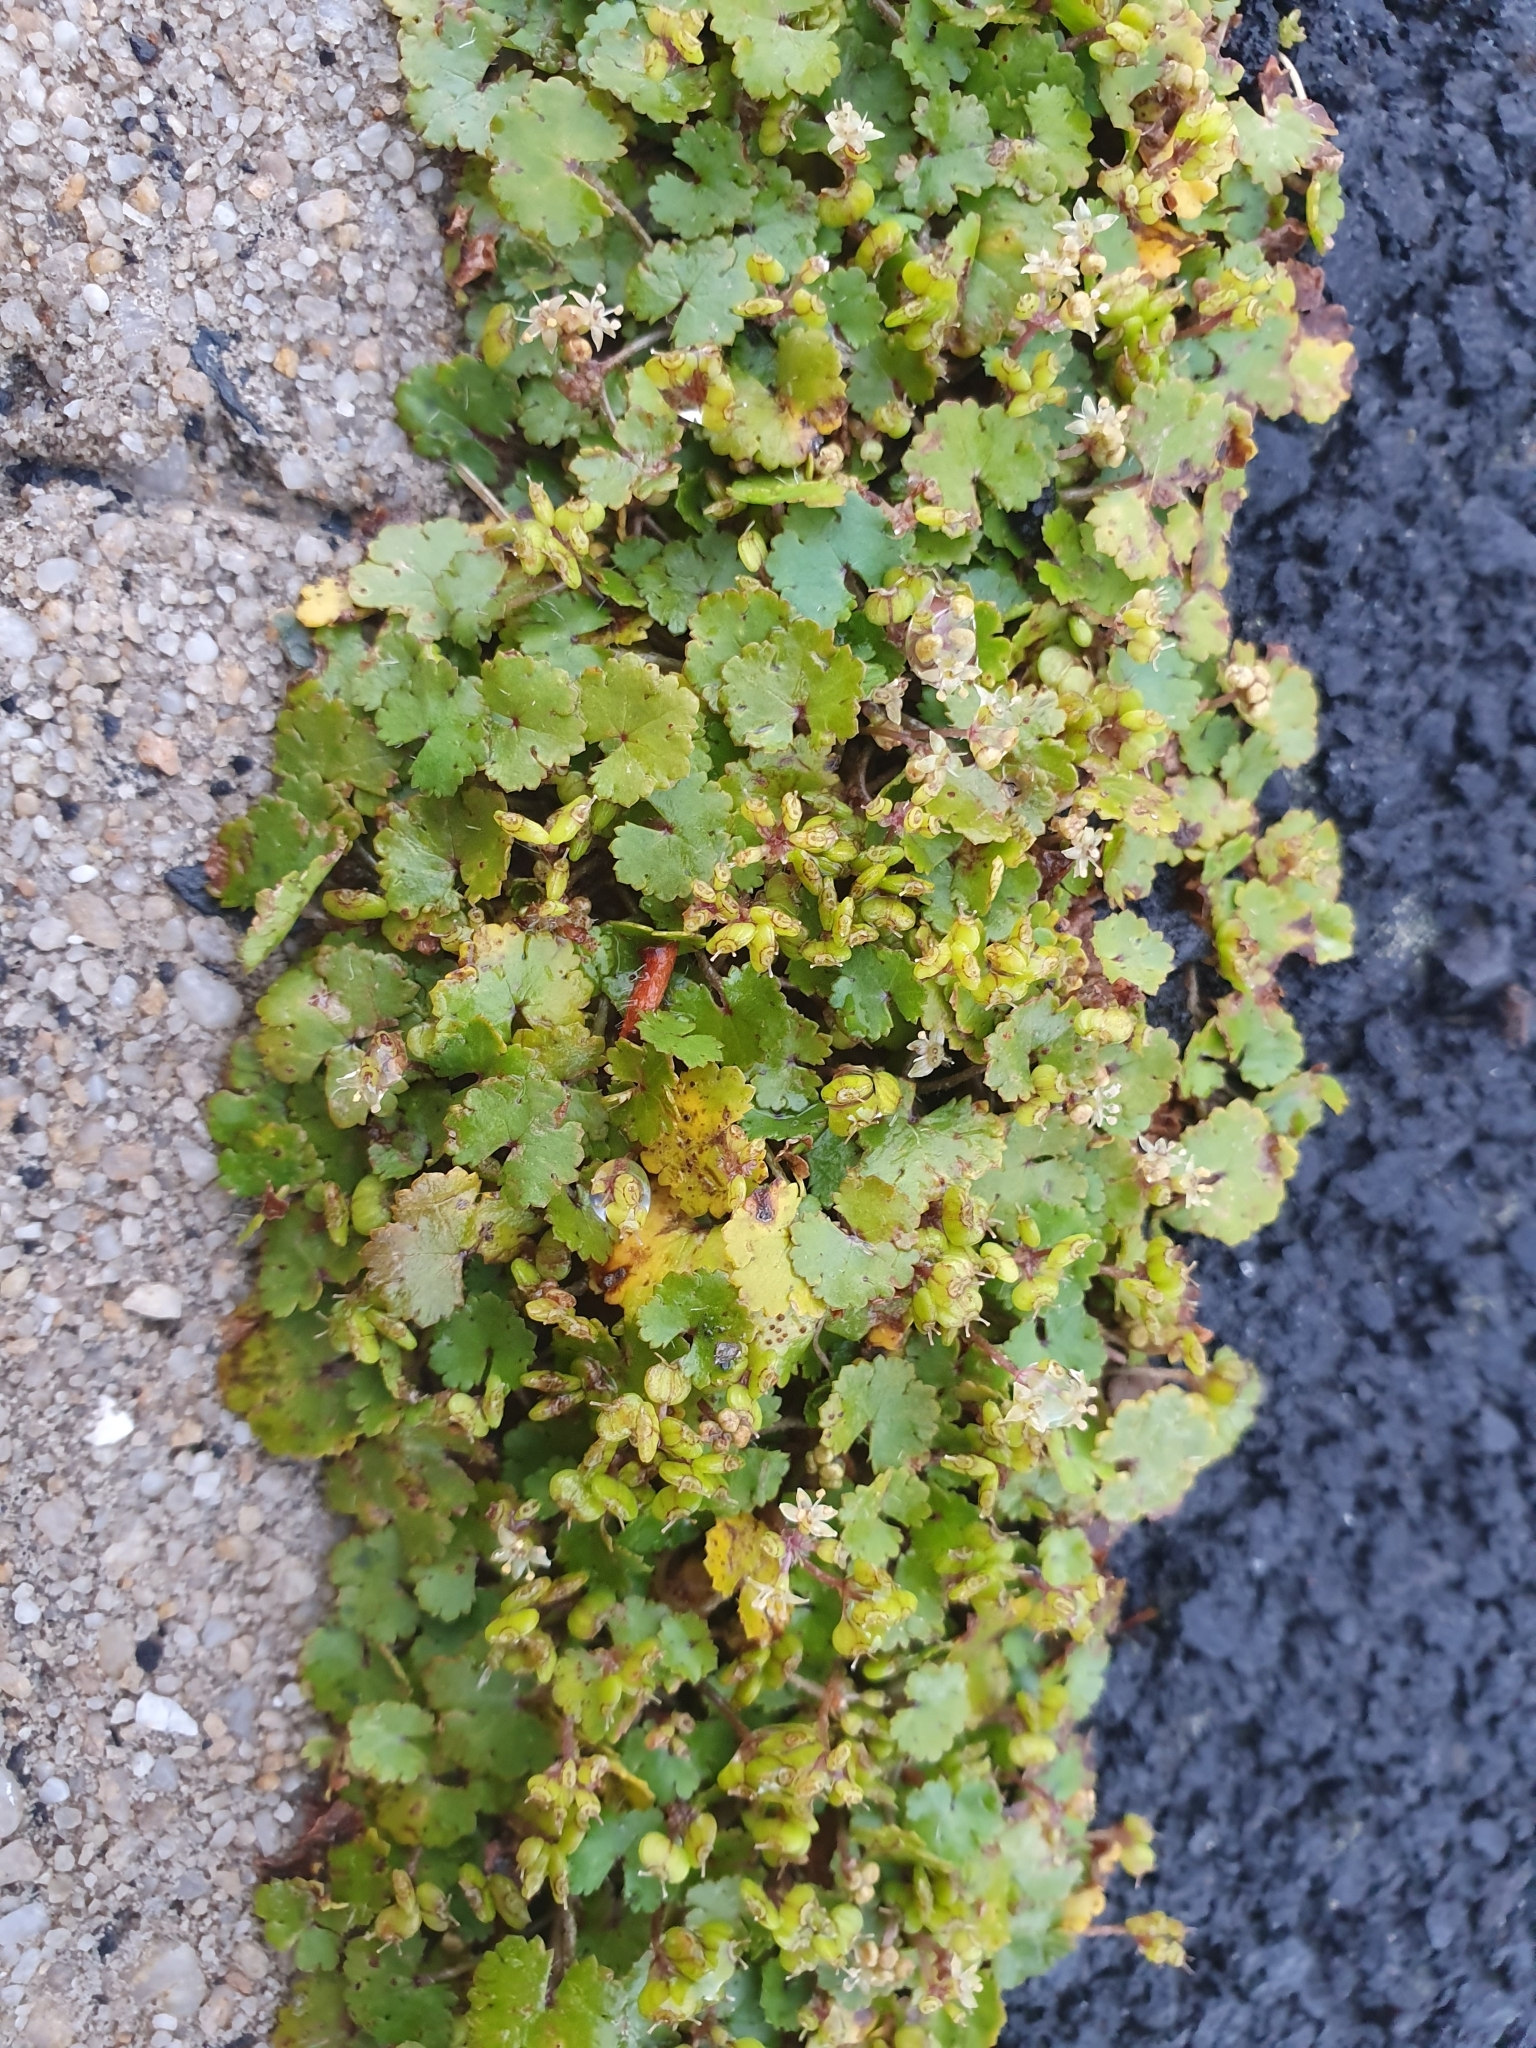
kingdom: Plantae
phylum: Tracheophyta
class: Magnoliopsida
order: Apiales
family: Araliaceae
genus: Hydrocotyle
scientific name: Hydrocotyle microphylla
